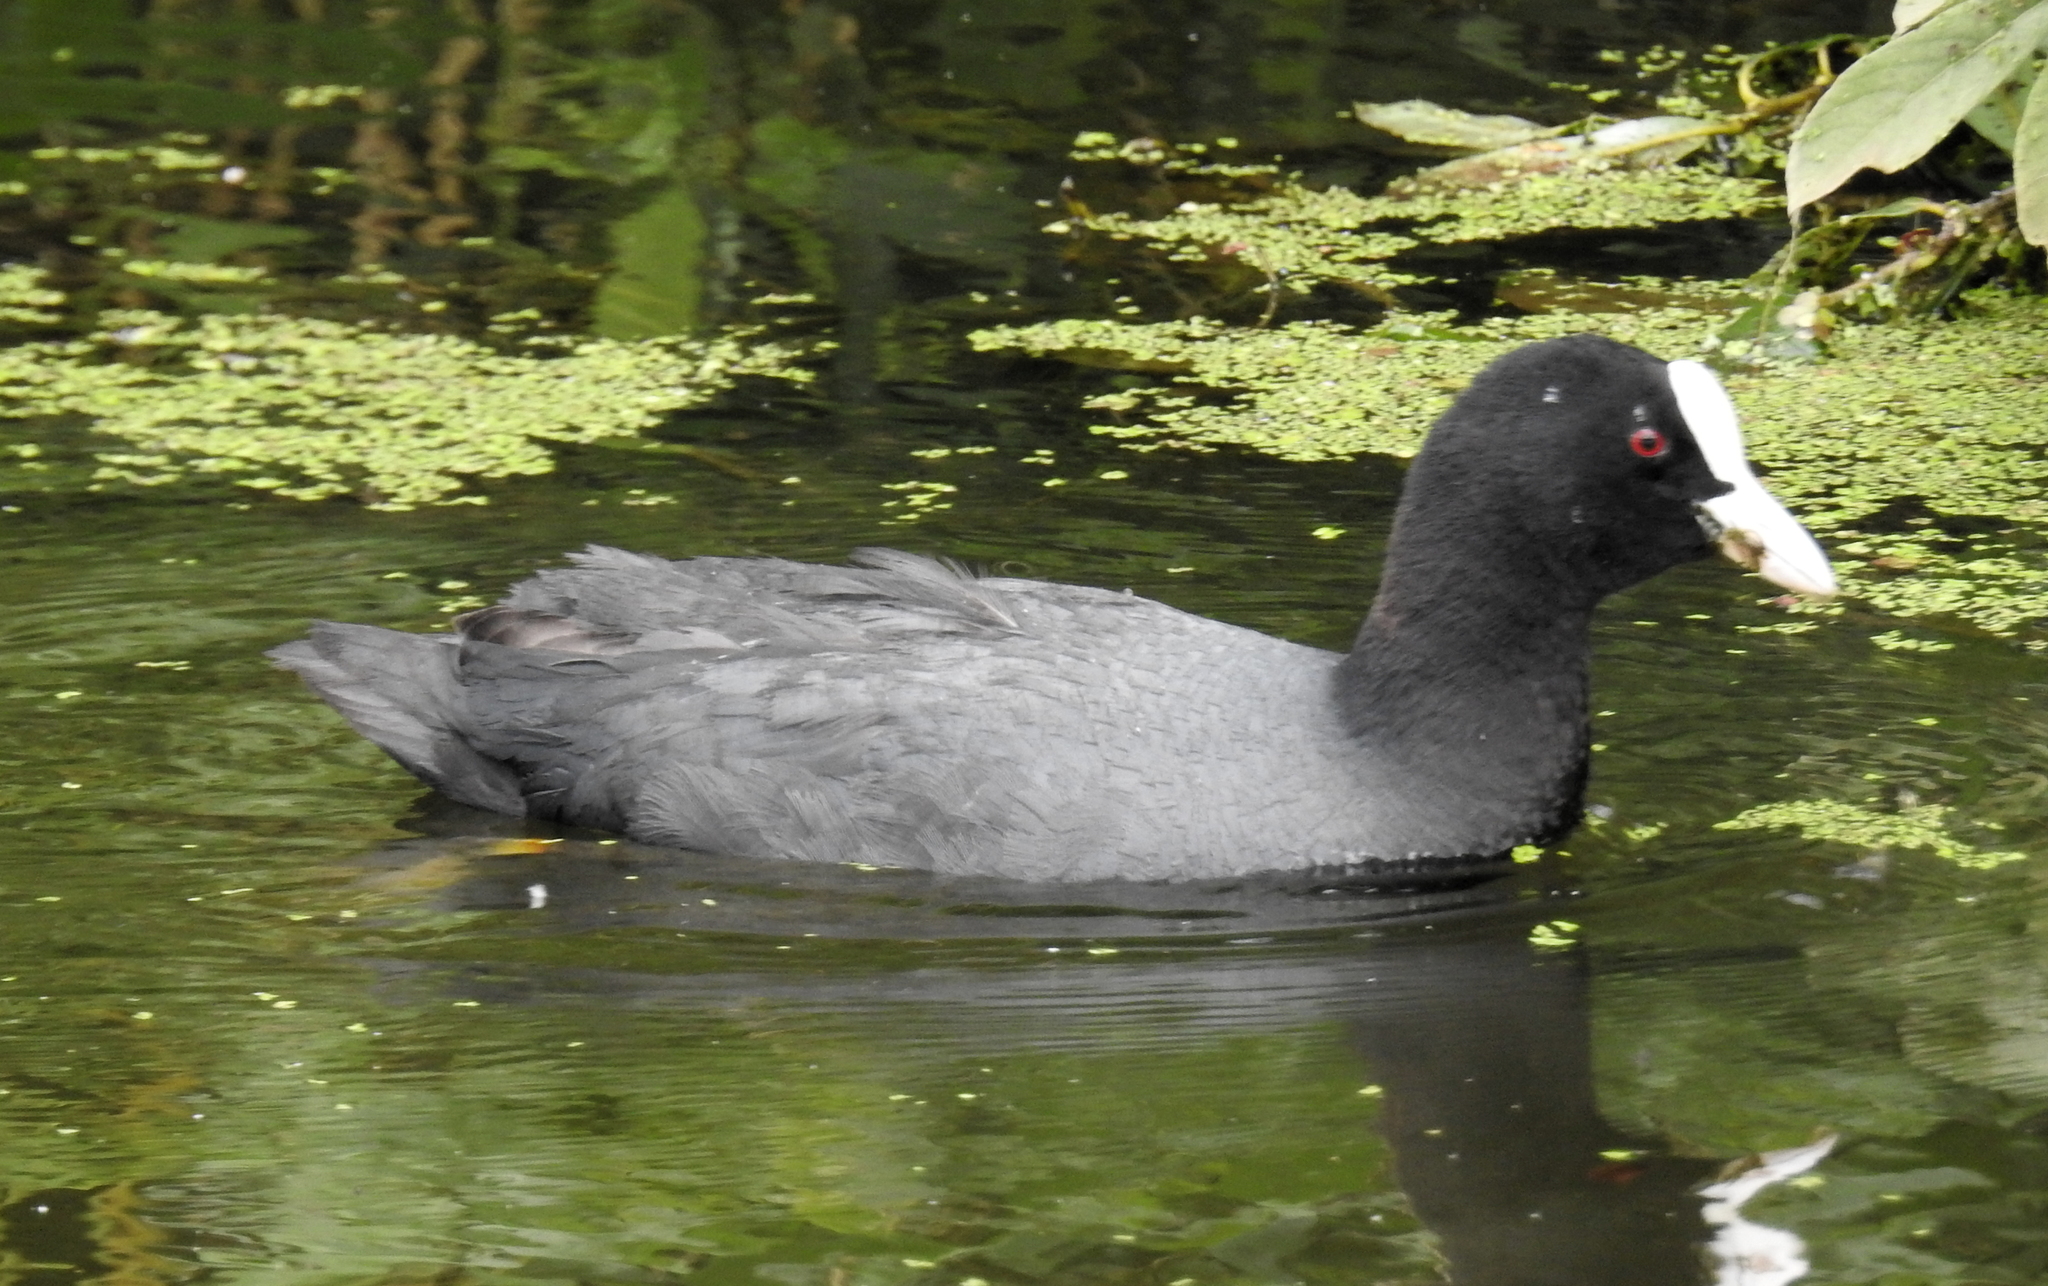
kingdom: Animalia
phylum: Chordata
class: Aves
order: Gruiformes
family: Rallidae
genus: Fulica
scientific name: Fulica atra
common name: Eurasian coot
